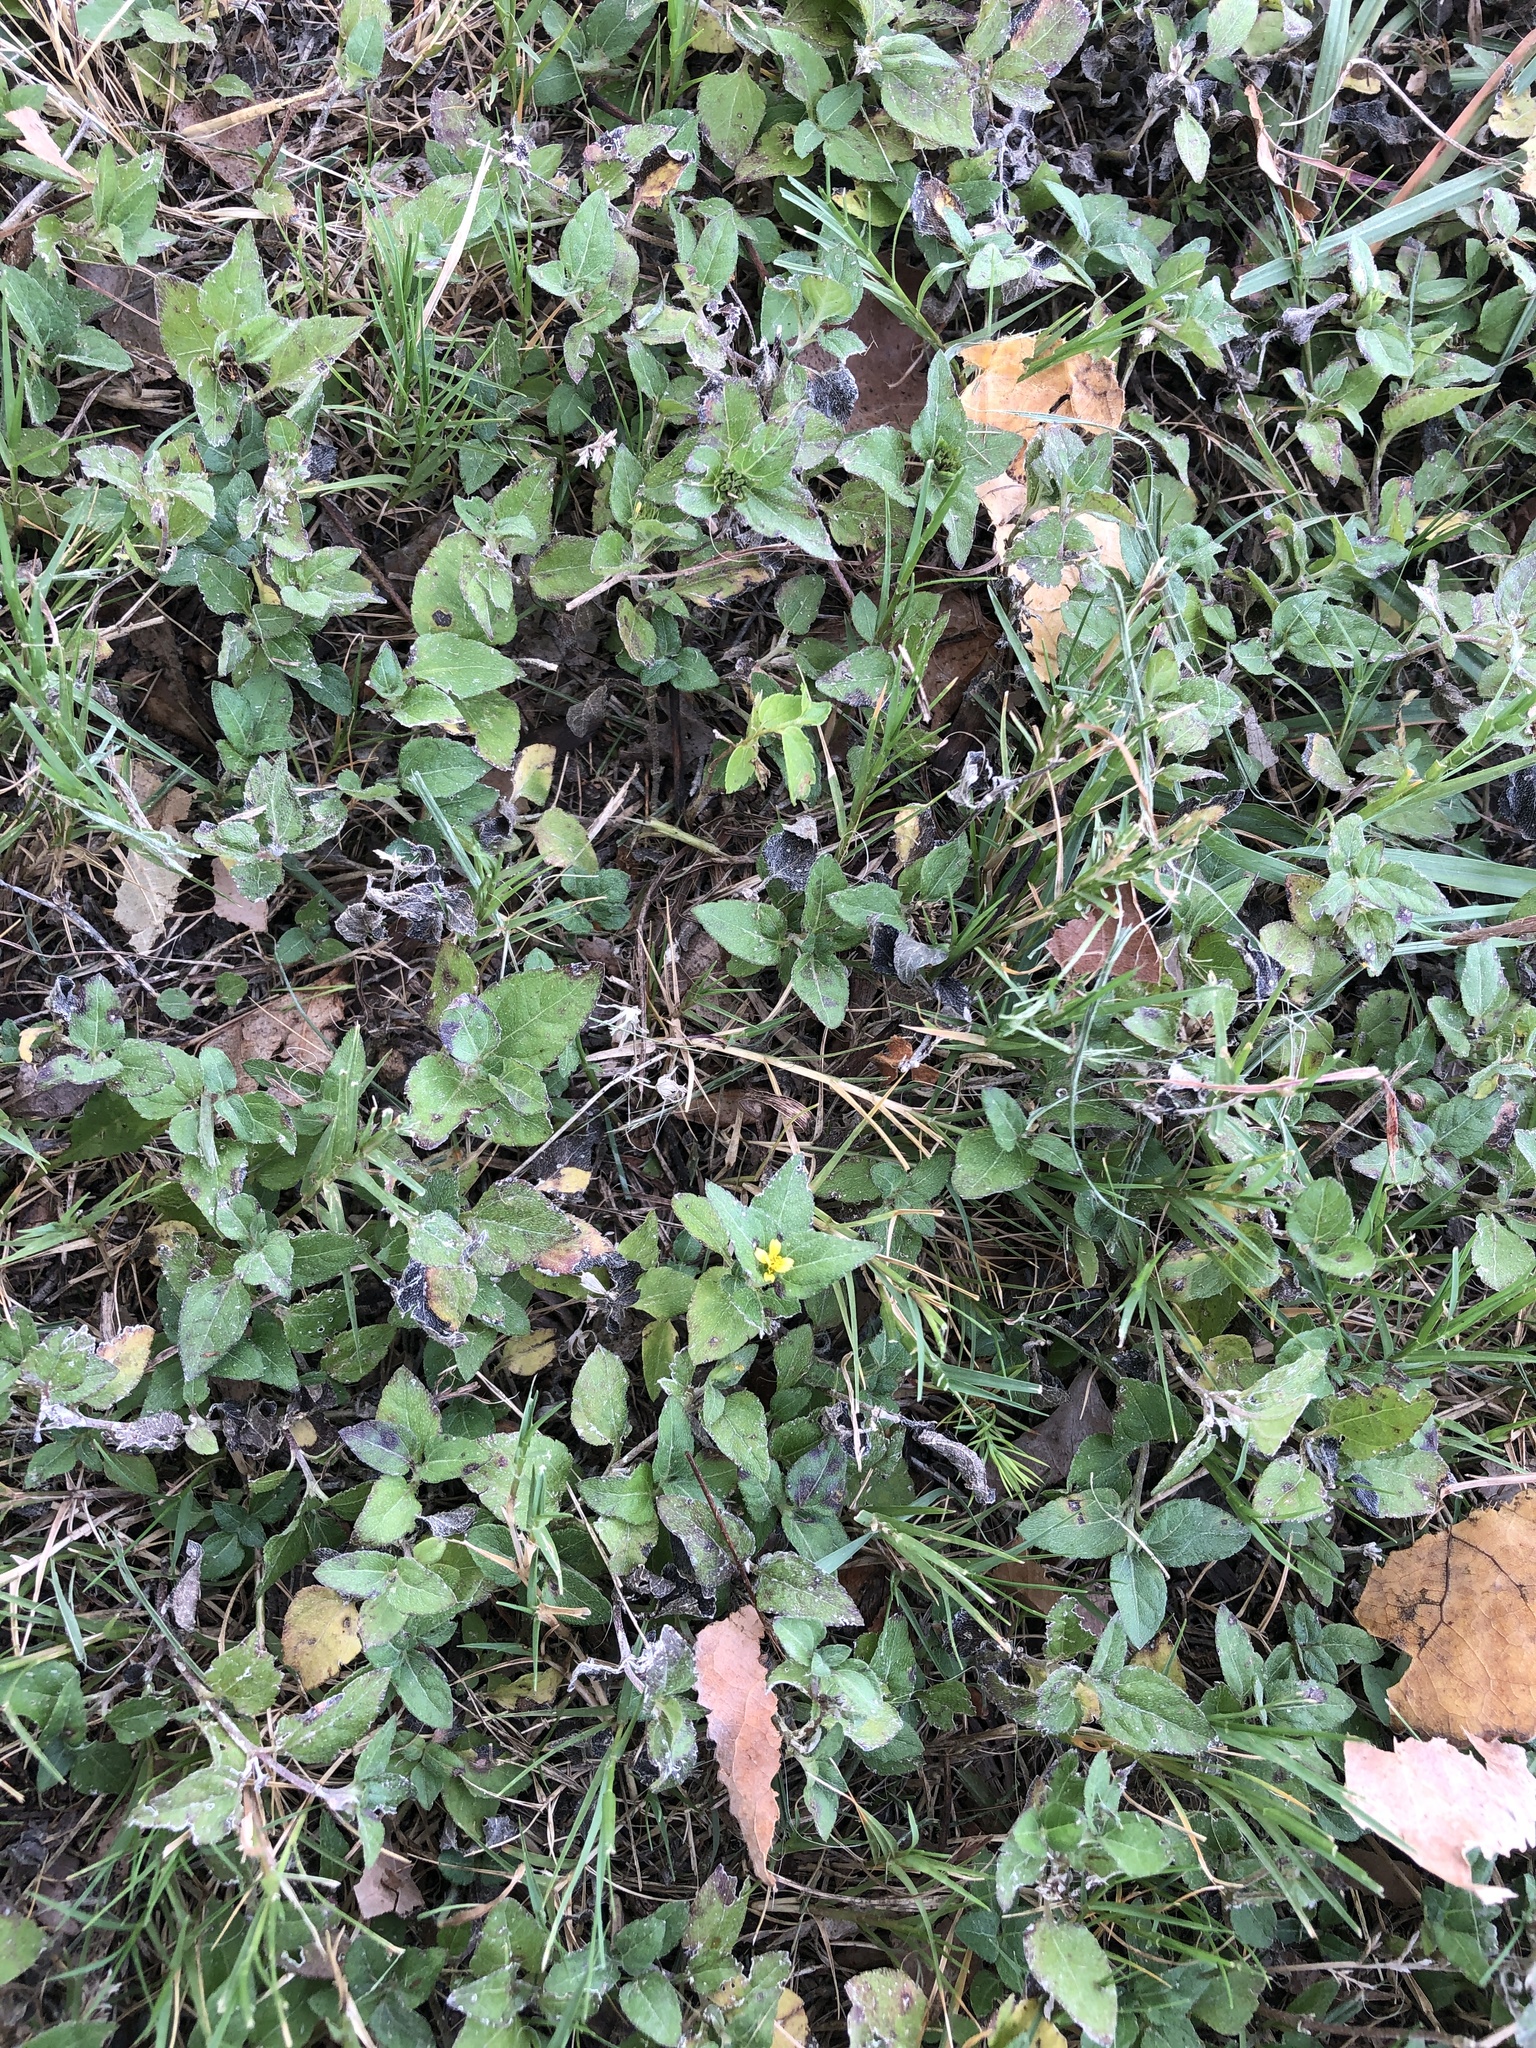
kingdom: Plantae
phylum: Tracheophyta
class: Magnoliopsida
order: Asterales
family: Asteraceae
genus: Calyptocarpus
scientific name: Calyptocarpus vialis
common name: Straggler daisy
